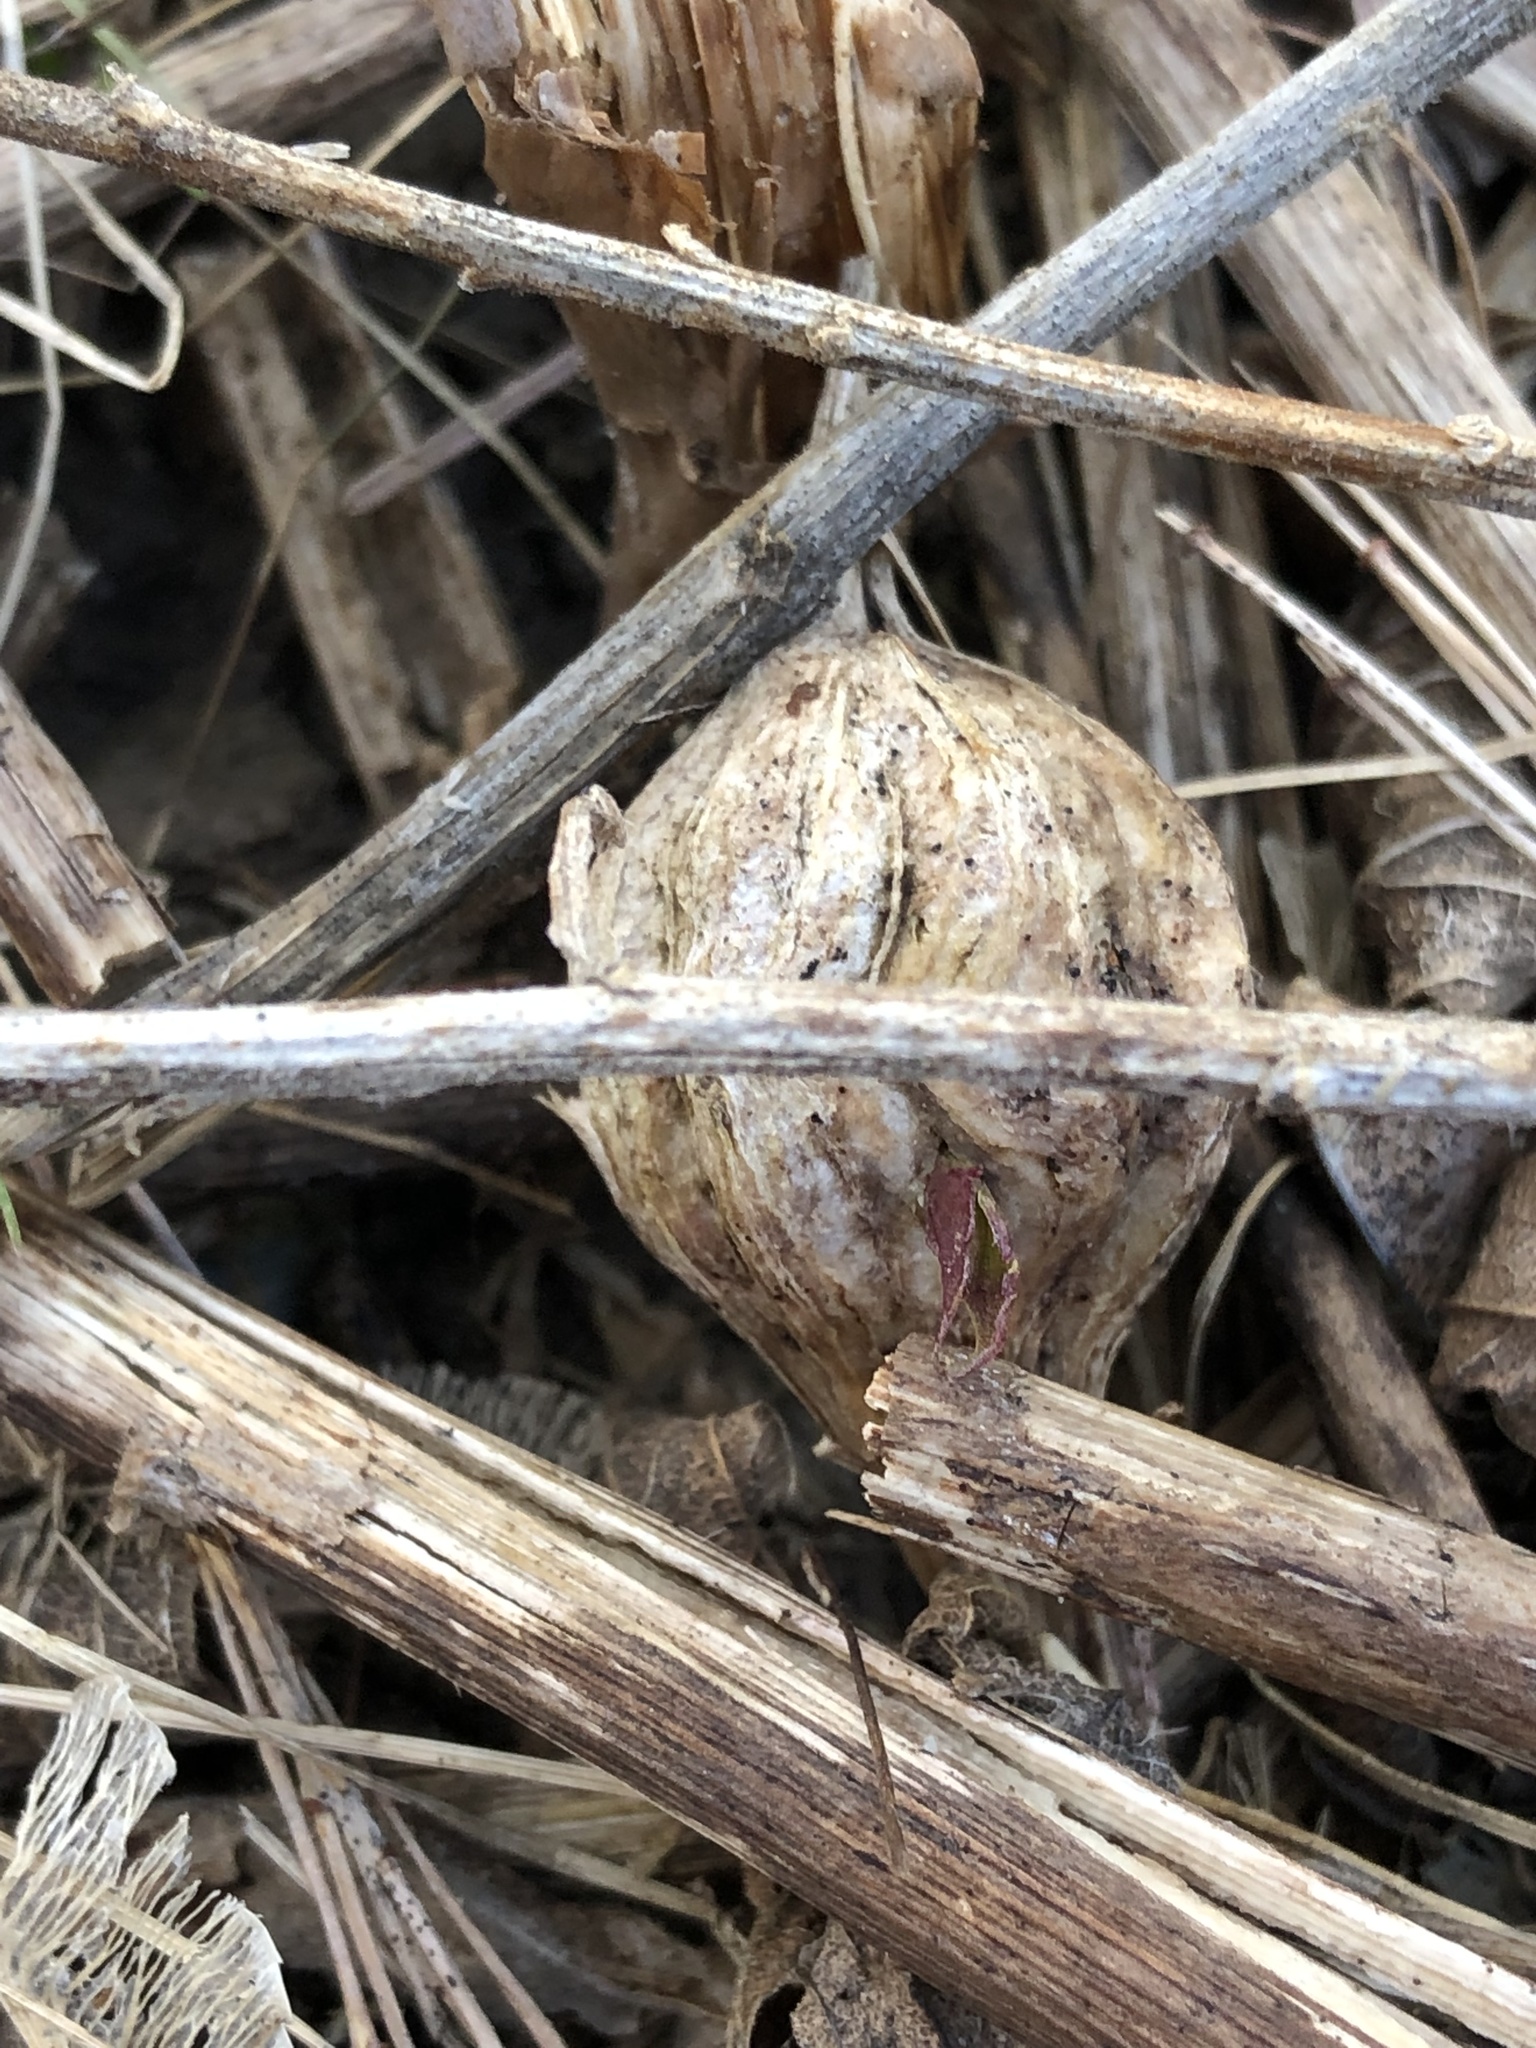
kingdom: Animalia
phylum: Arthropoda
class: Insecta
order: Diptera
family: Tephritidae
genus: Eurosta
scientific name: Eurosta solidaginis
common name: Goldenrod gall fly
